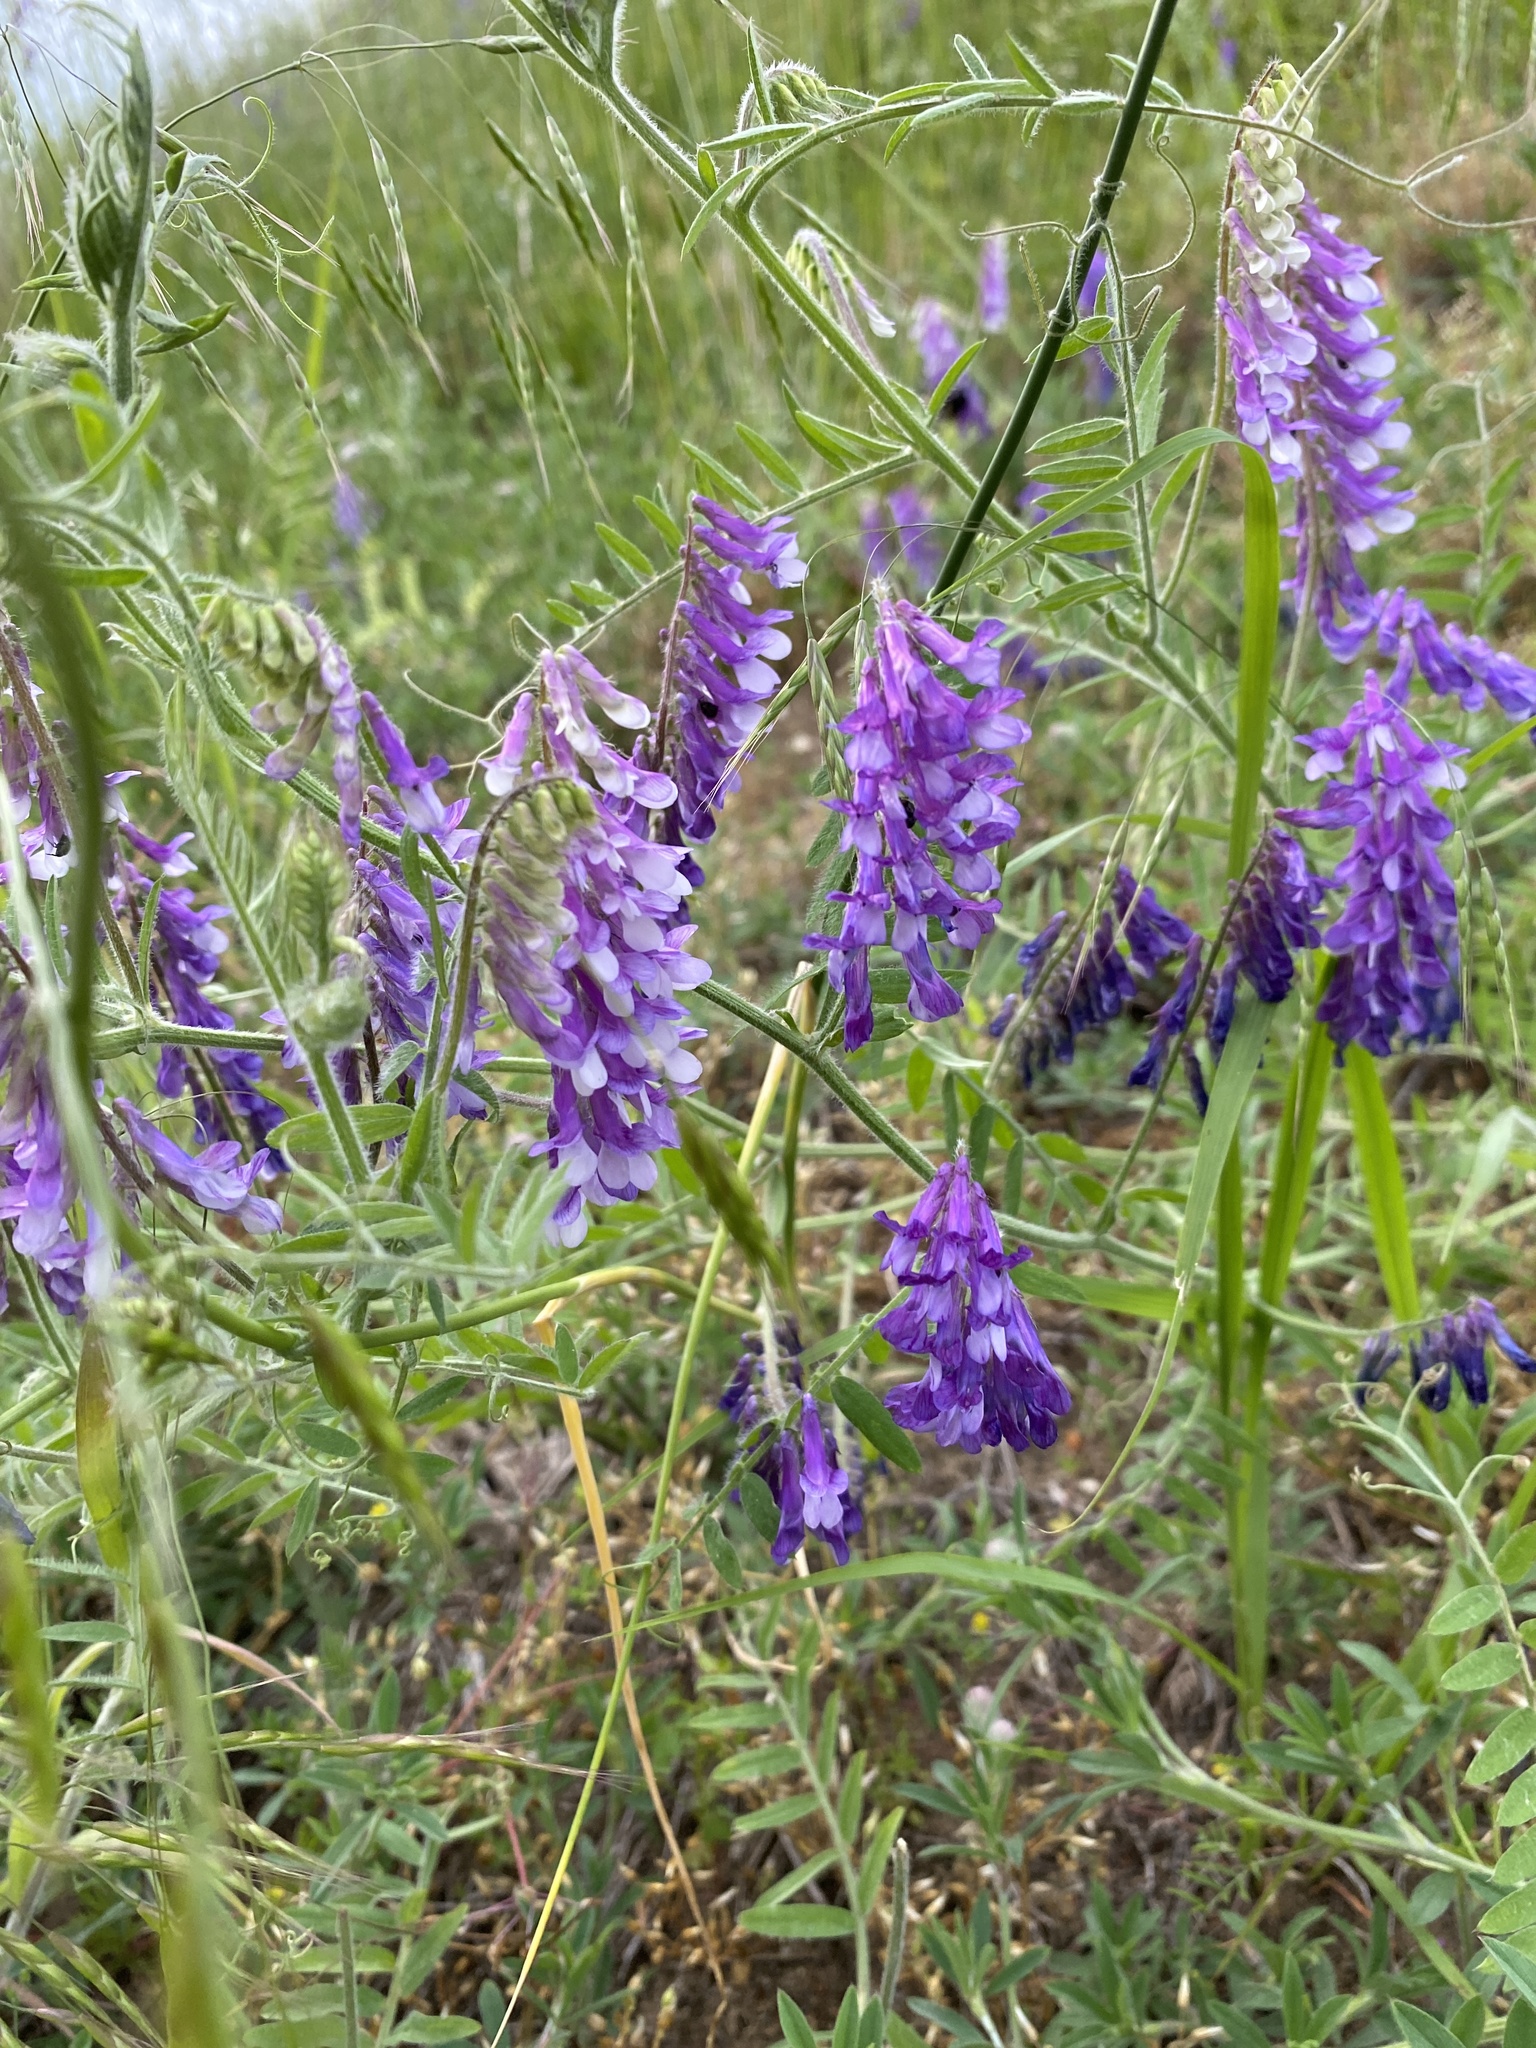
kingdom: Plantae
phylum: Tracheophyta
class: Magnoliopsida
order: Fabales
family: Fabaceae
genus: Vicia
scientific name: Vicia villosa
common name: Fodder vetch
